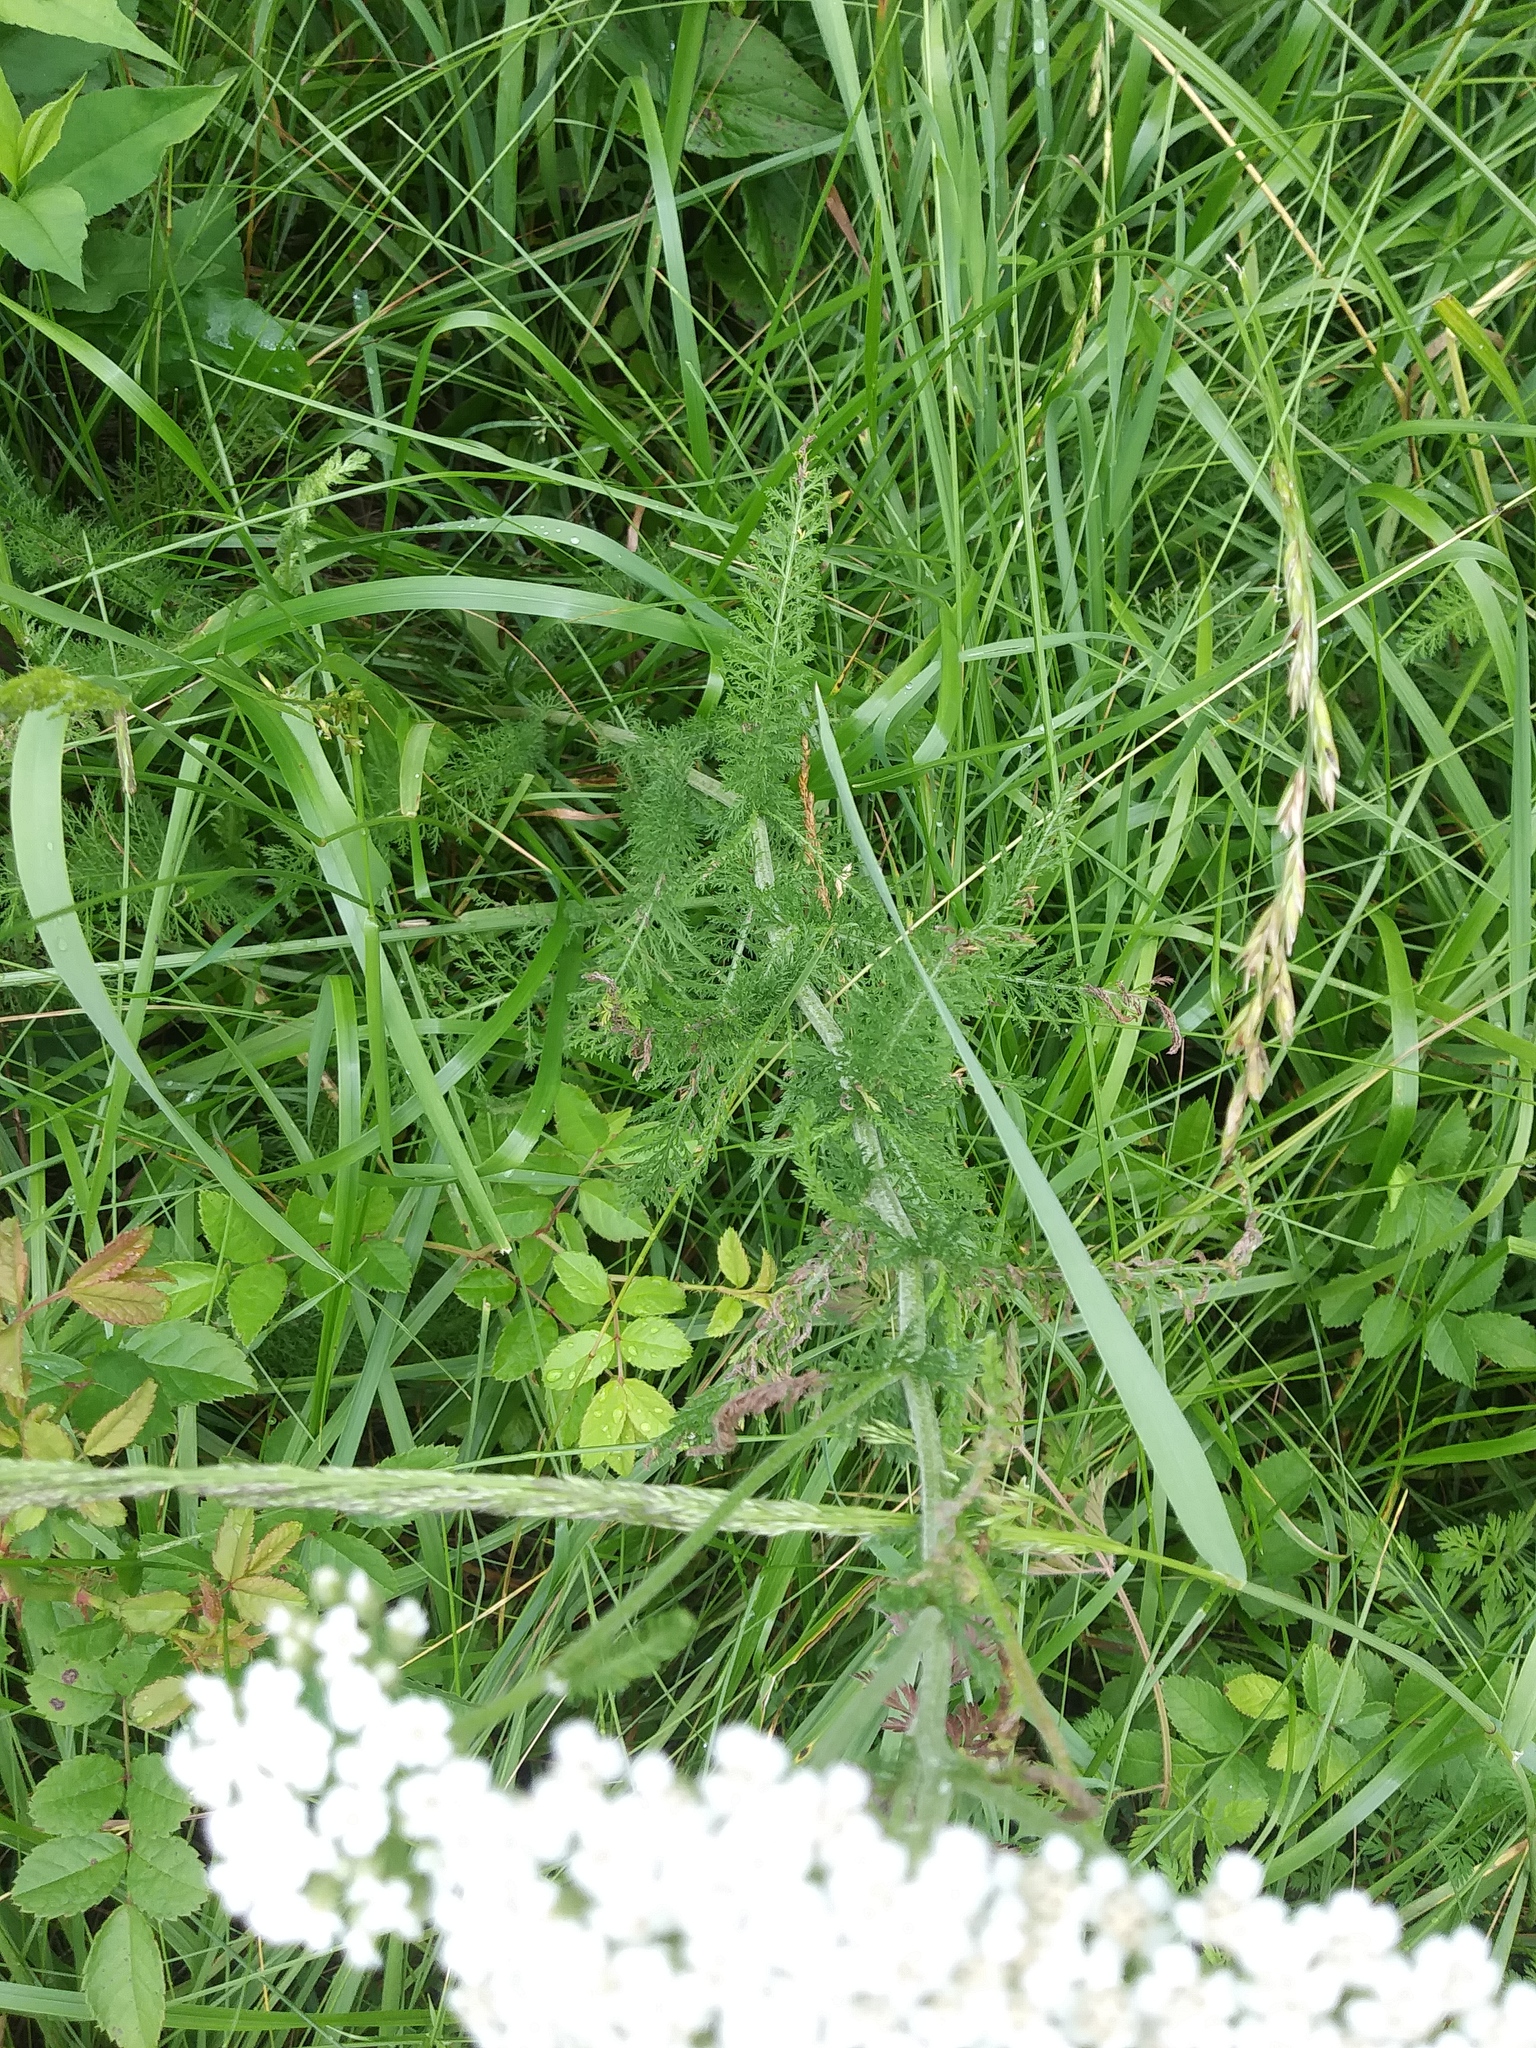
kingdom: Plantae
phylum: Tracheophyta
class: Magnoliopsida
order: Asterales
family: Asteraceae
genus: Achillea
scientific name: Achillea millefolium
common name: Yarrow
